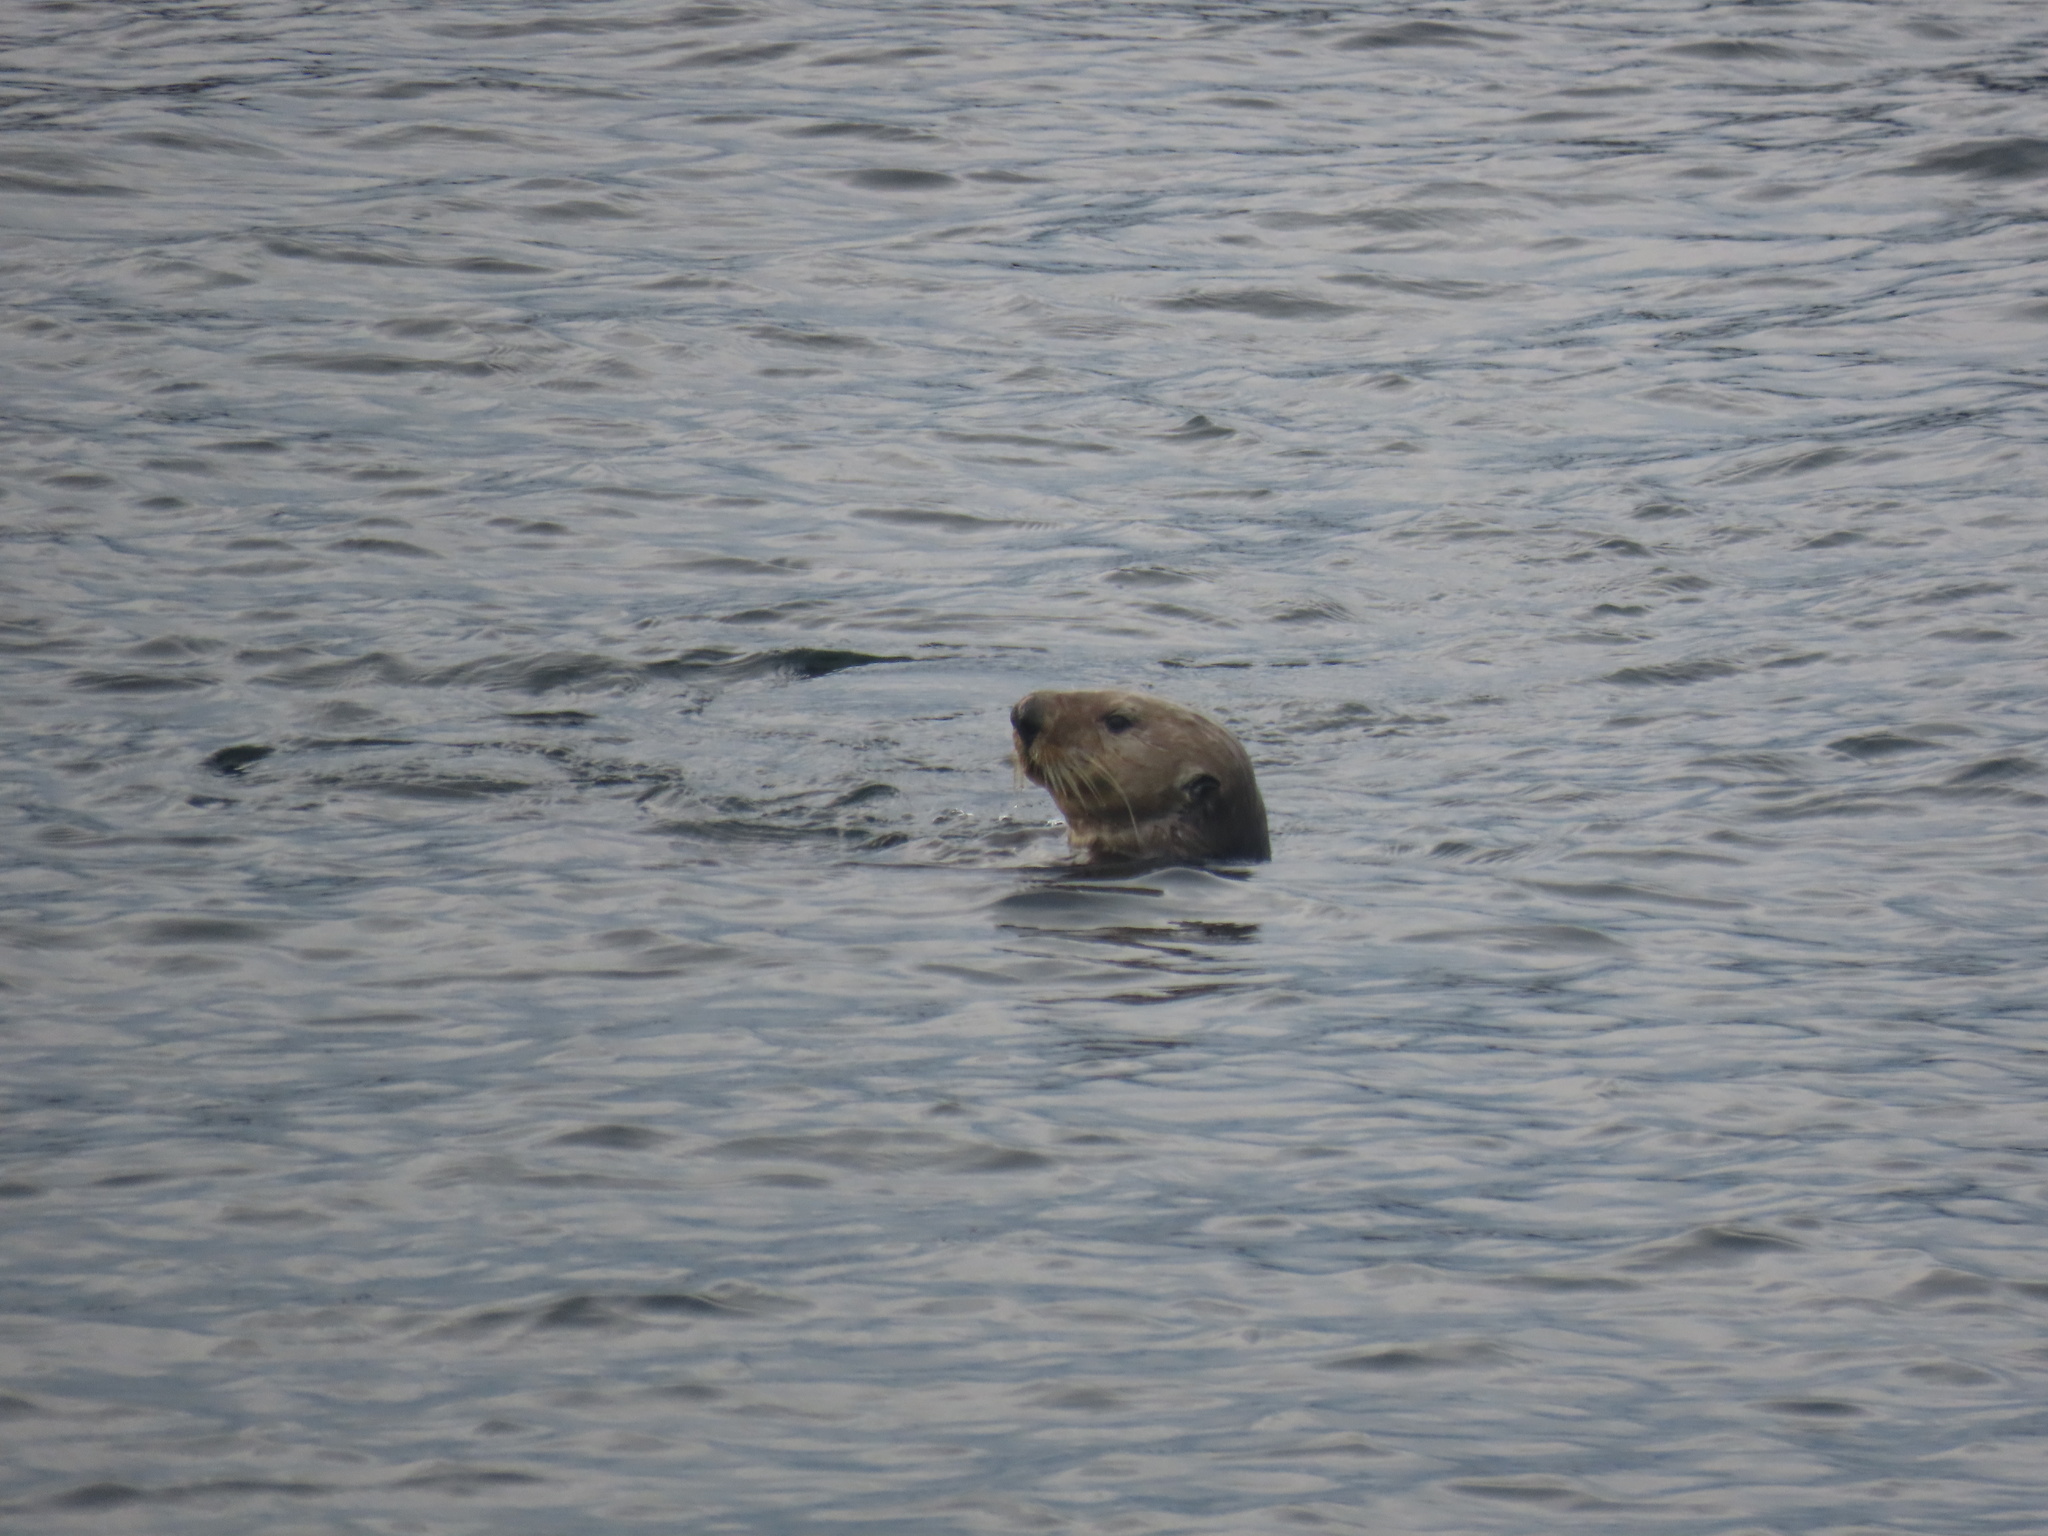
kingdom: Animalia
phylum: Chordata
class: Mammalia
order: Carnivora
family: Mustelidae
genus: Enhydra
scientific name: Enhydra lutris
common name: Sea otter
